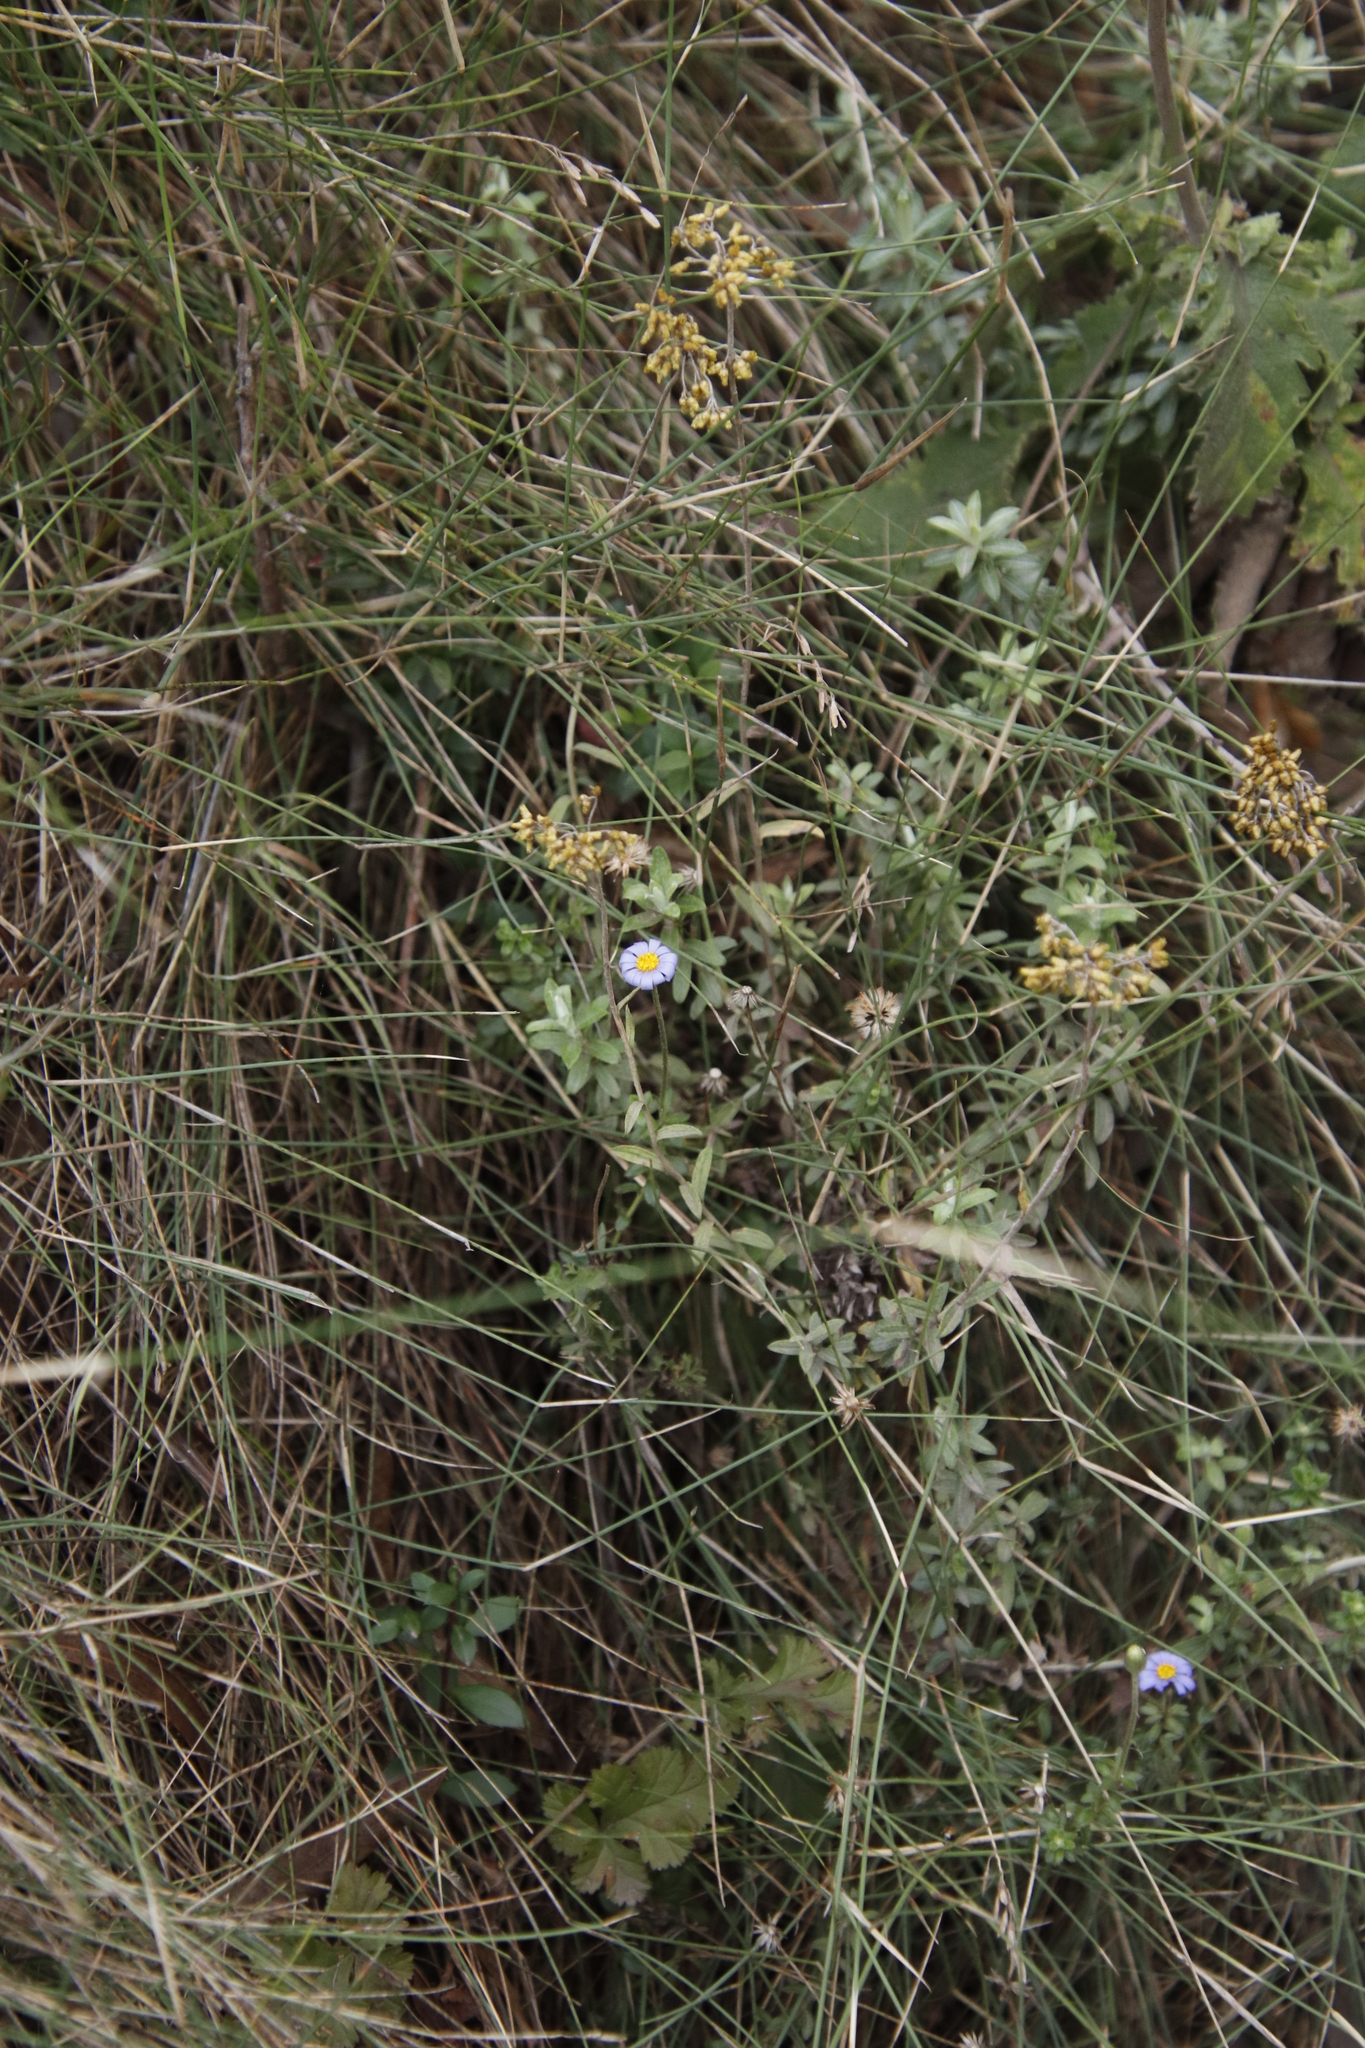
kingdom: Plantae
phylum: Tracheophyta
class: Magnoliopsida
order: Asterales
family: Asteraceae
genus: Felicia
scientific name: Felicia aethiopica
